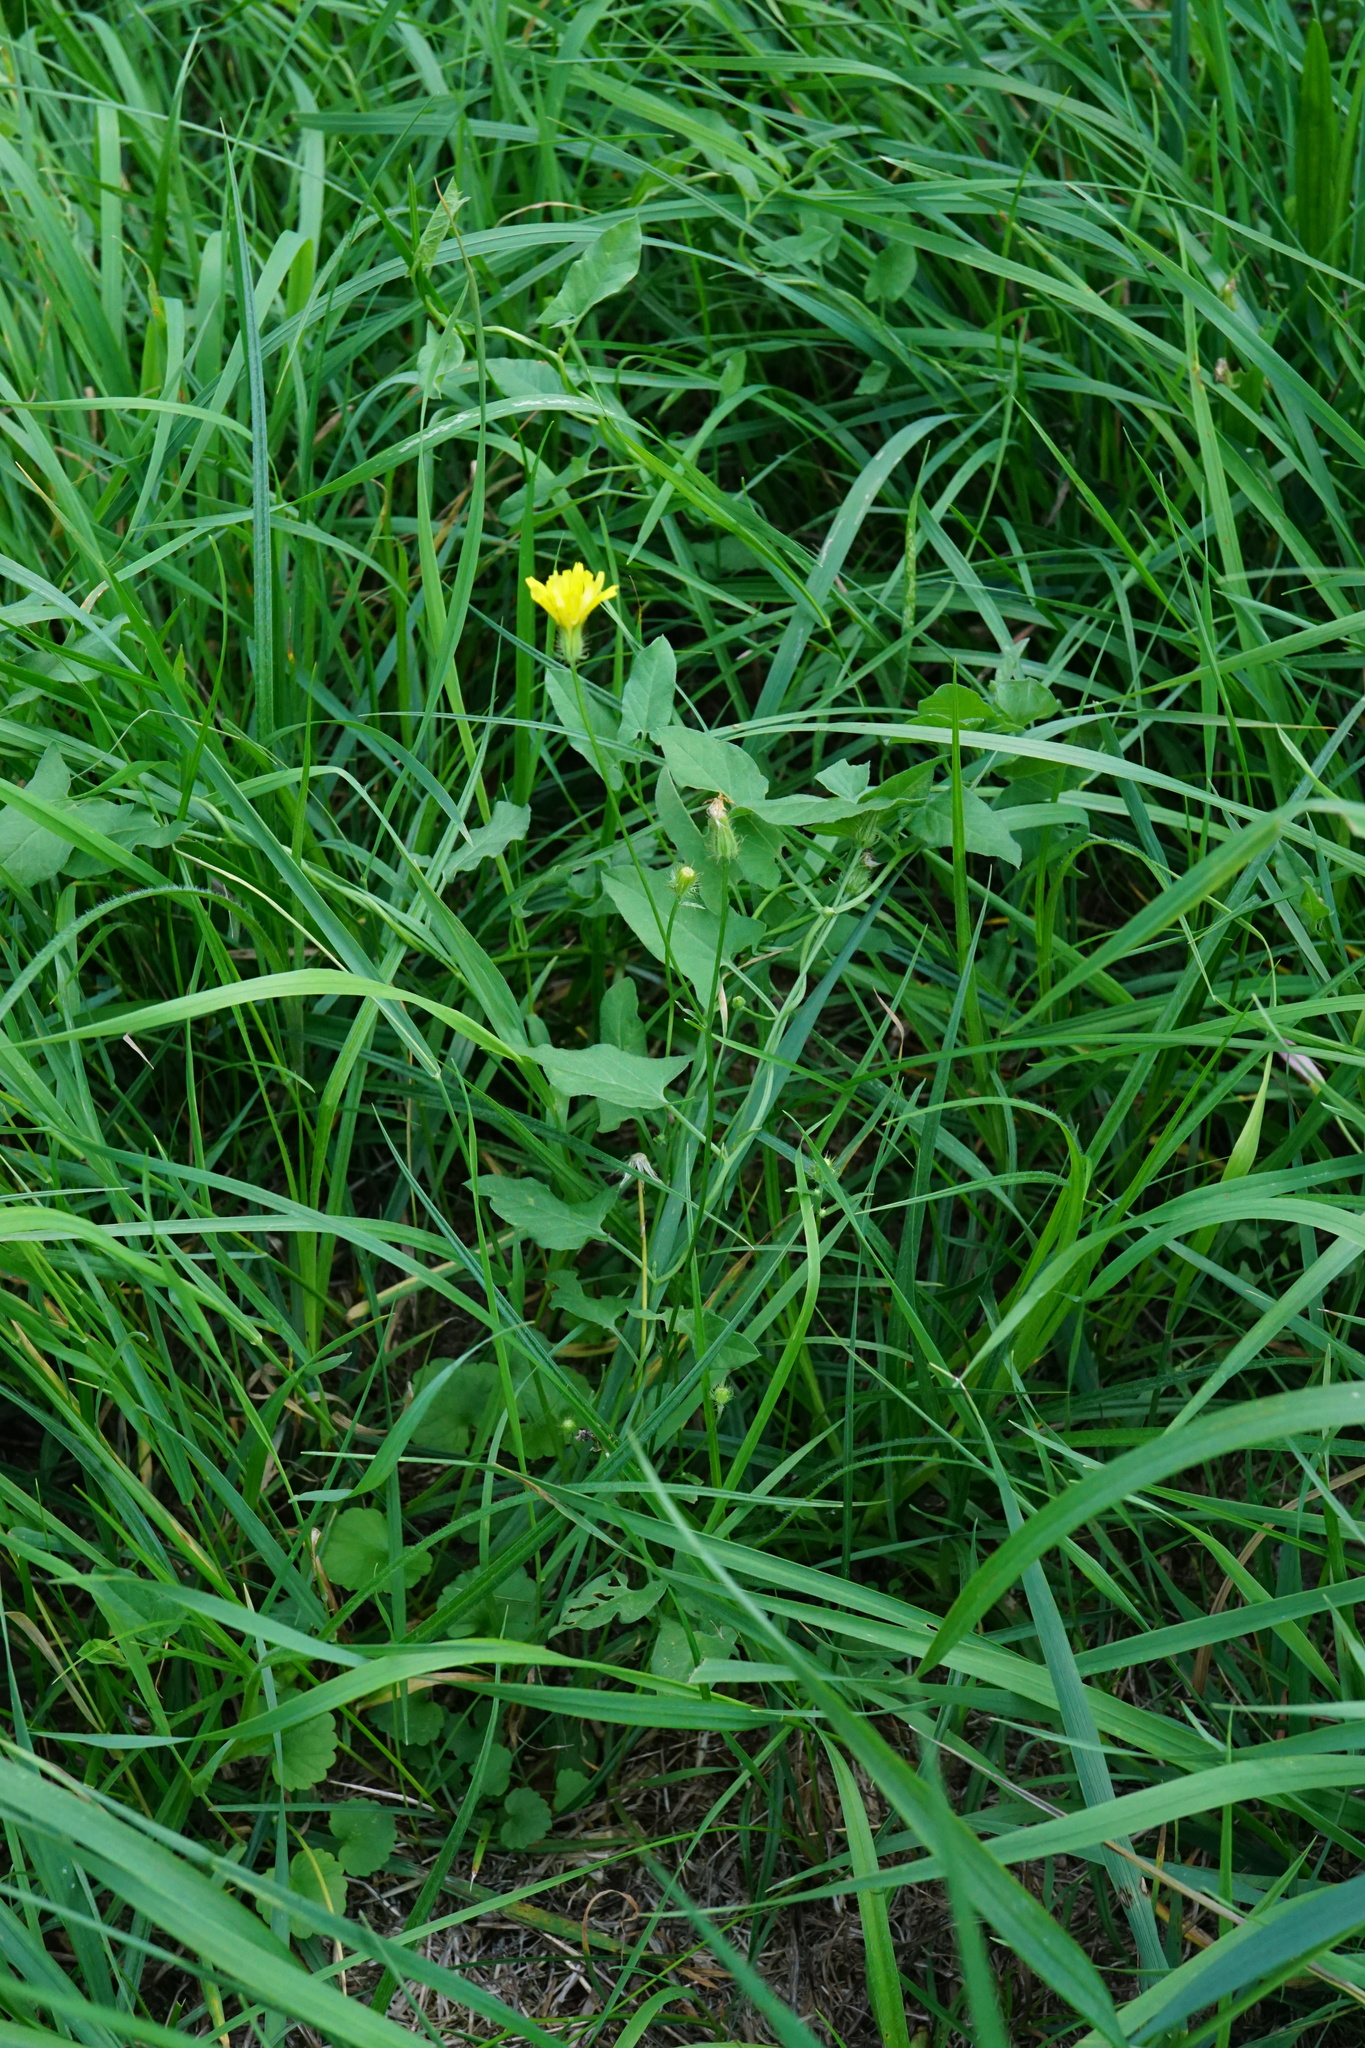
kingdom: Plantae
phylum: Tracheophyta
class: Magnoliopsida
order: Asterales
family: Asteraceae
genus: Crepis
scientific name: Crepis setosa
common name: Bristly hawk's-beard
